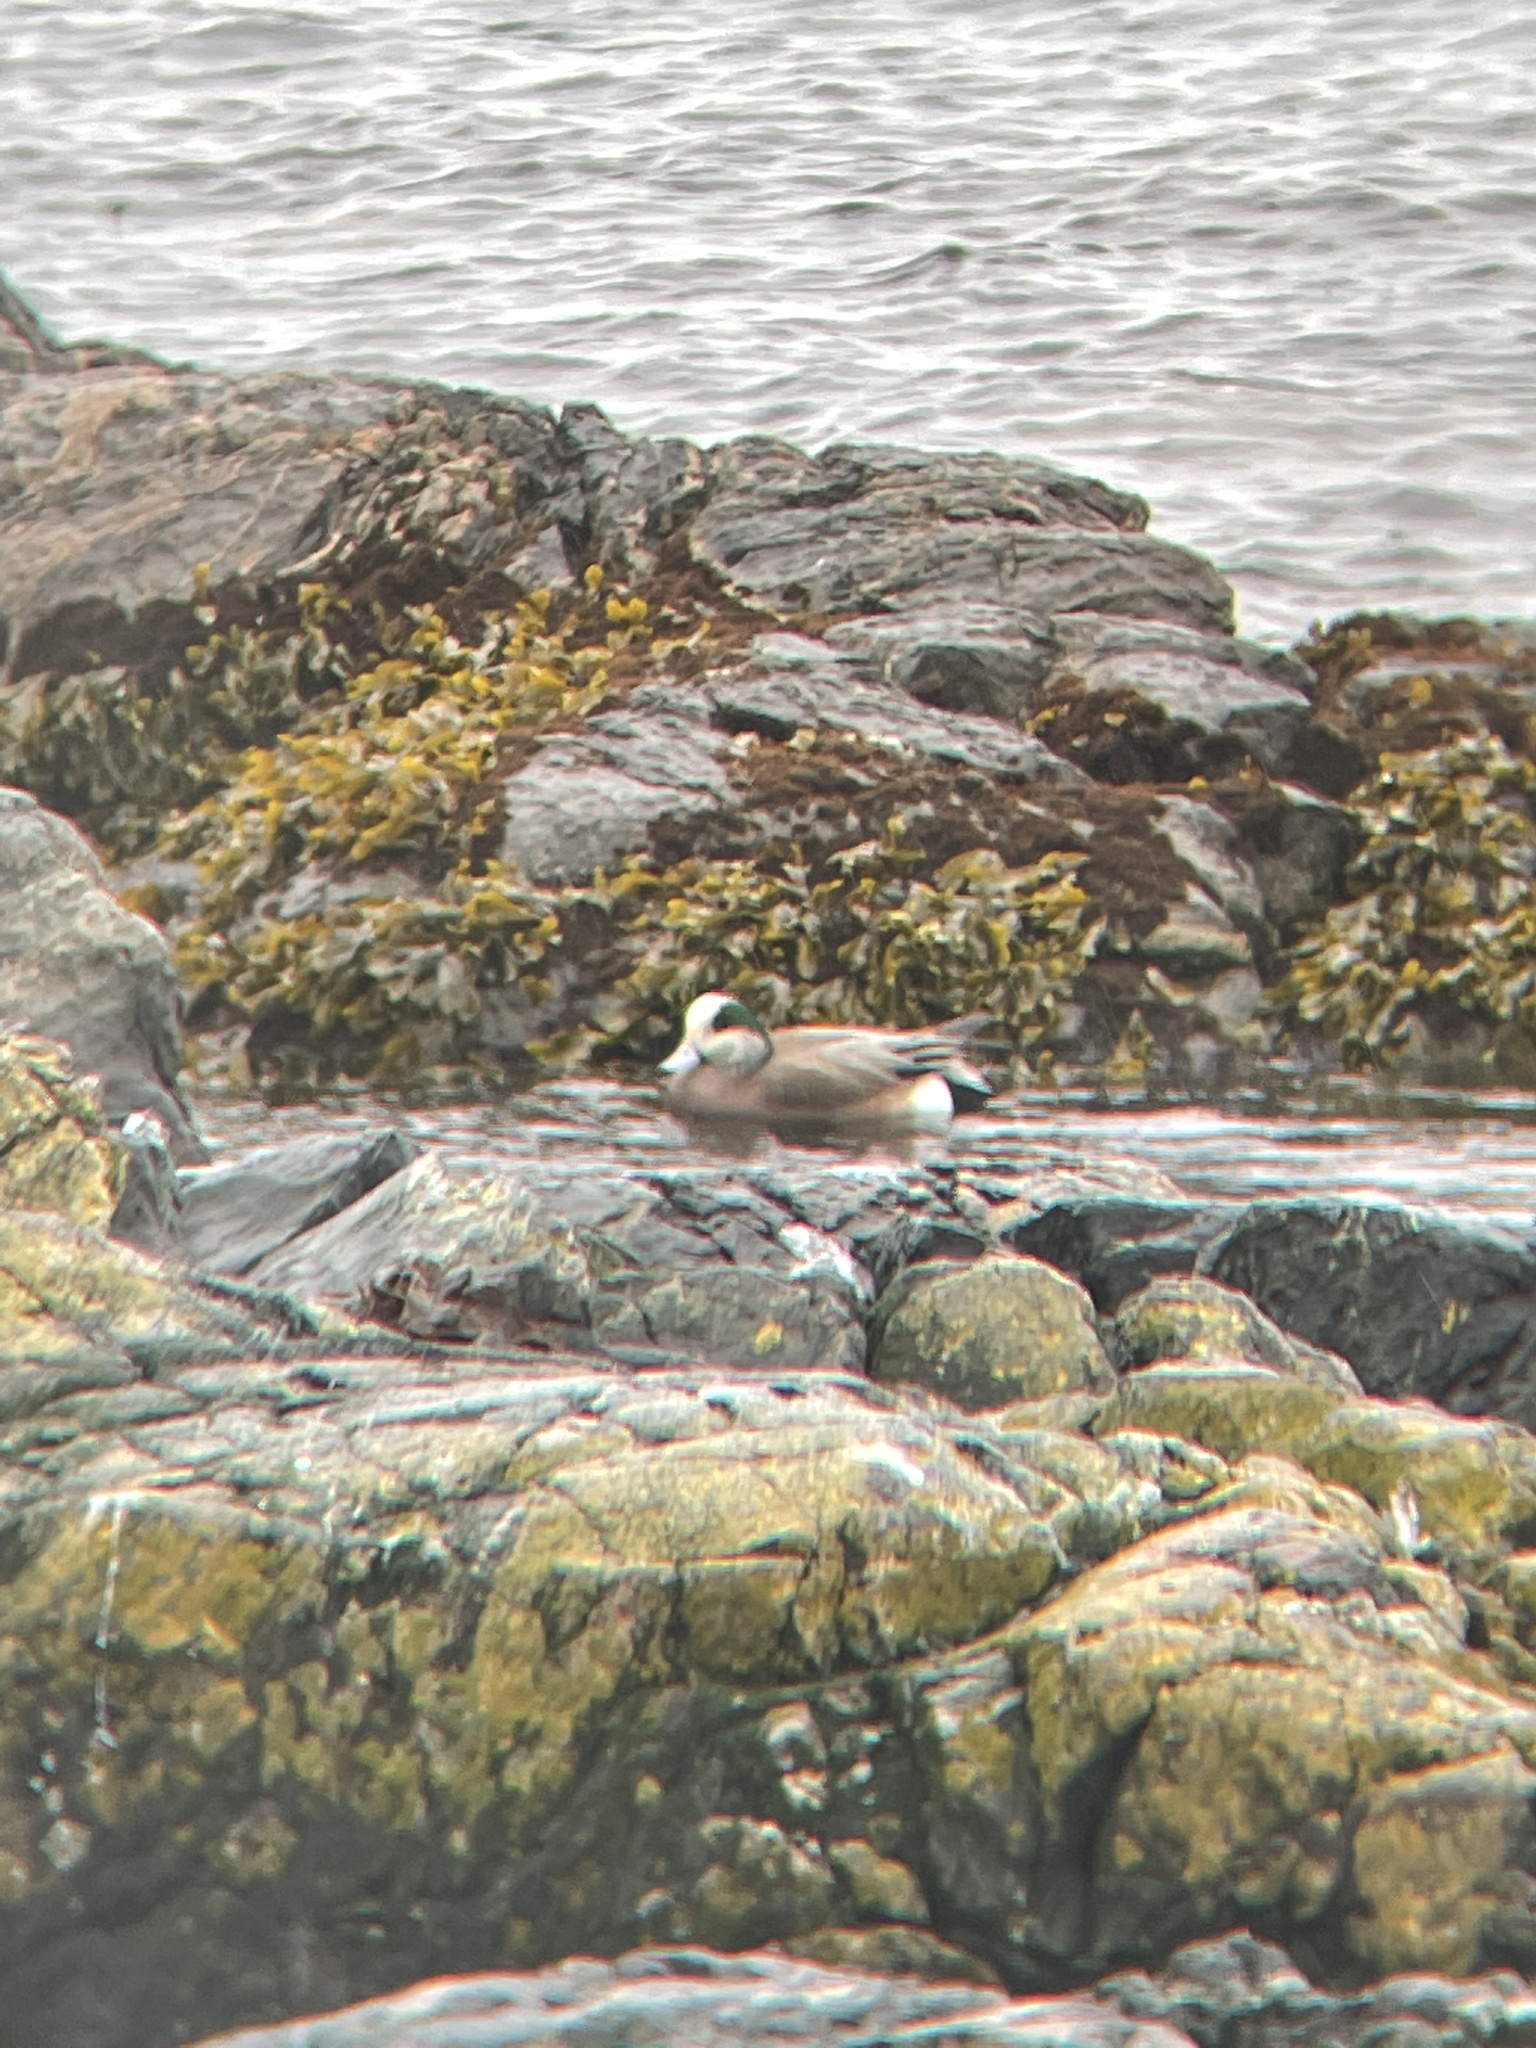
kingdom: Animalia
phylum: Chordata
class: Aves
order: Anseriformes
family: Anatidae
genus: Mareca
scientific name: Mareca americana
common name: American wigeon
